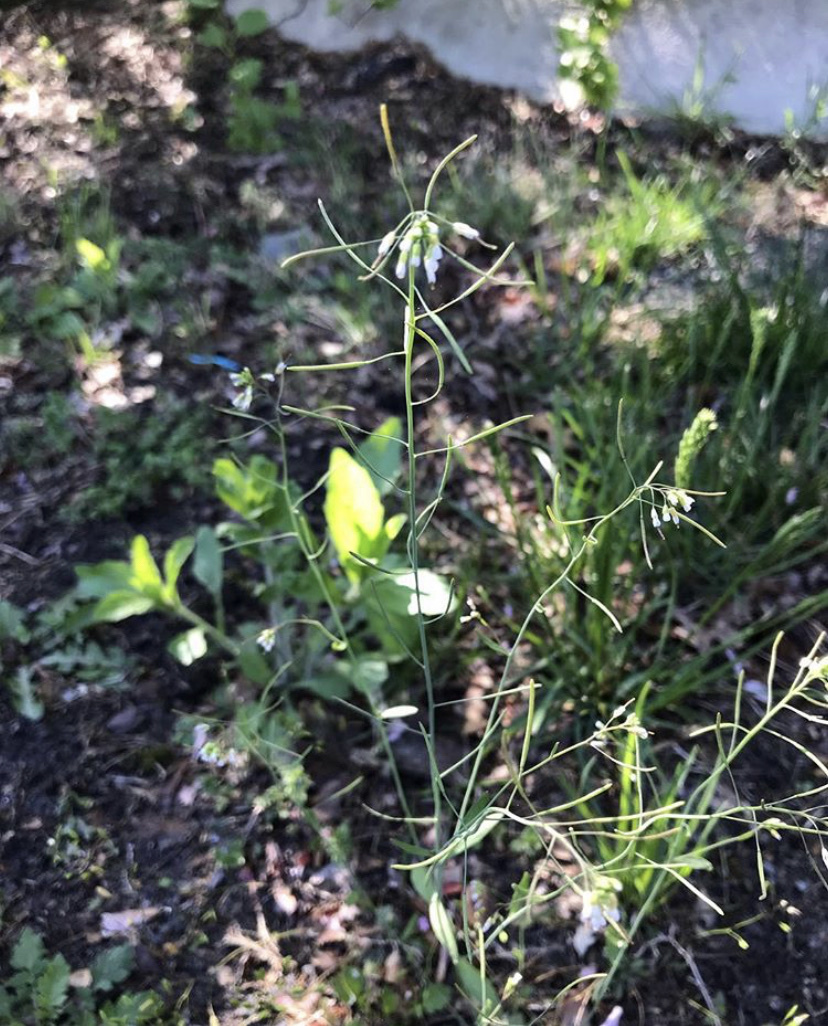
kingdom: Plantae
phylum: Tracheophyta
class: Magnoliopsida
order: Brassicales
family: Brassicaceae
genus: Arabidopsis
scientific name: Arabidopsis thaliana
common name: Thale cress
